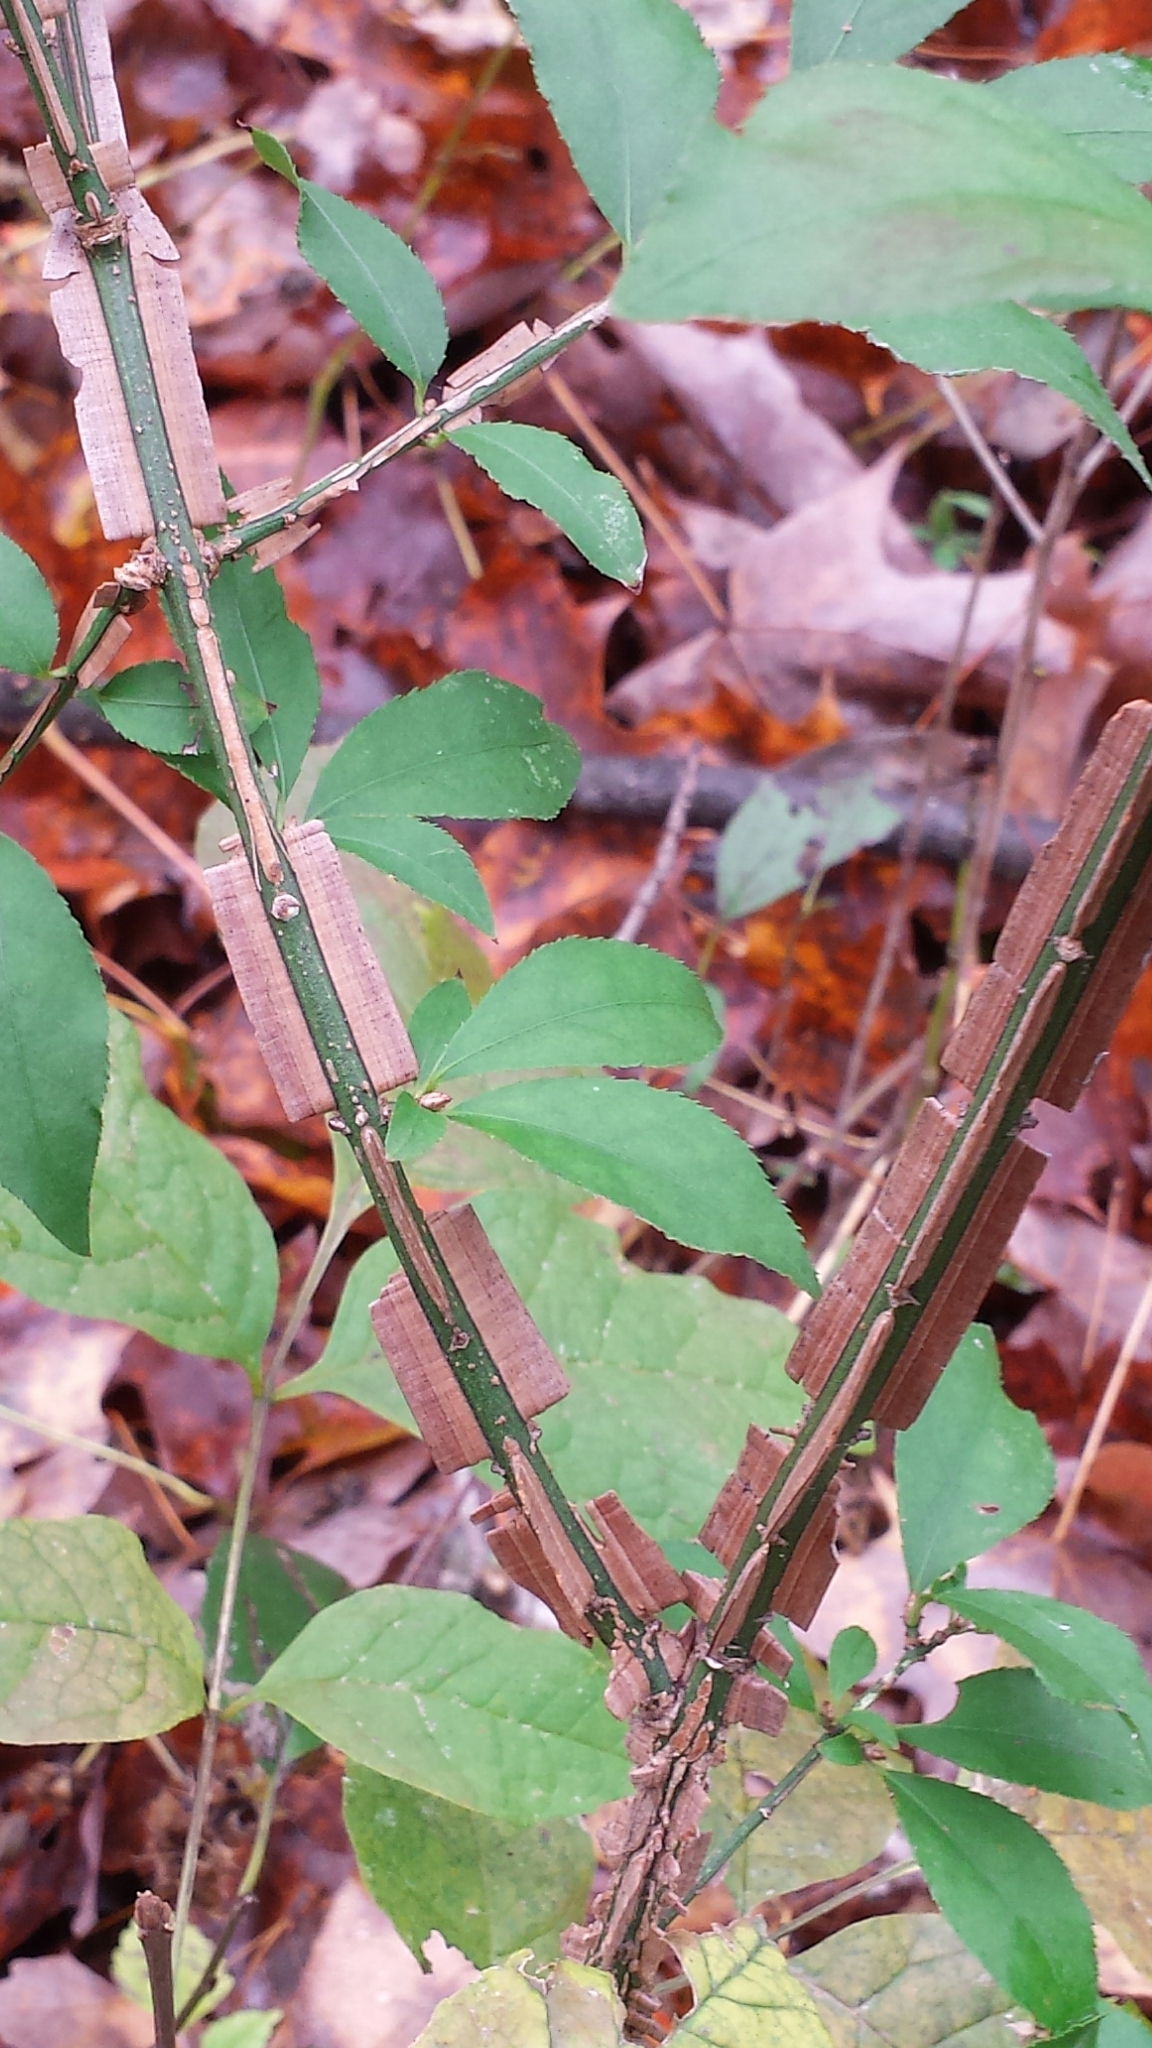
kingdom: Plantae
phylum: Tracheophyta
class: Magnoliopsida
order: Celastrales
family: Celastraceae
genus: Euonymus
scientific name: Euonymus alatus
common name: Winged euonymus
